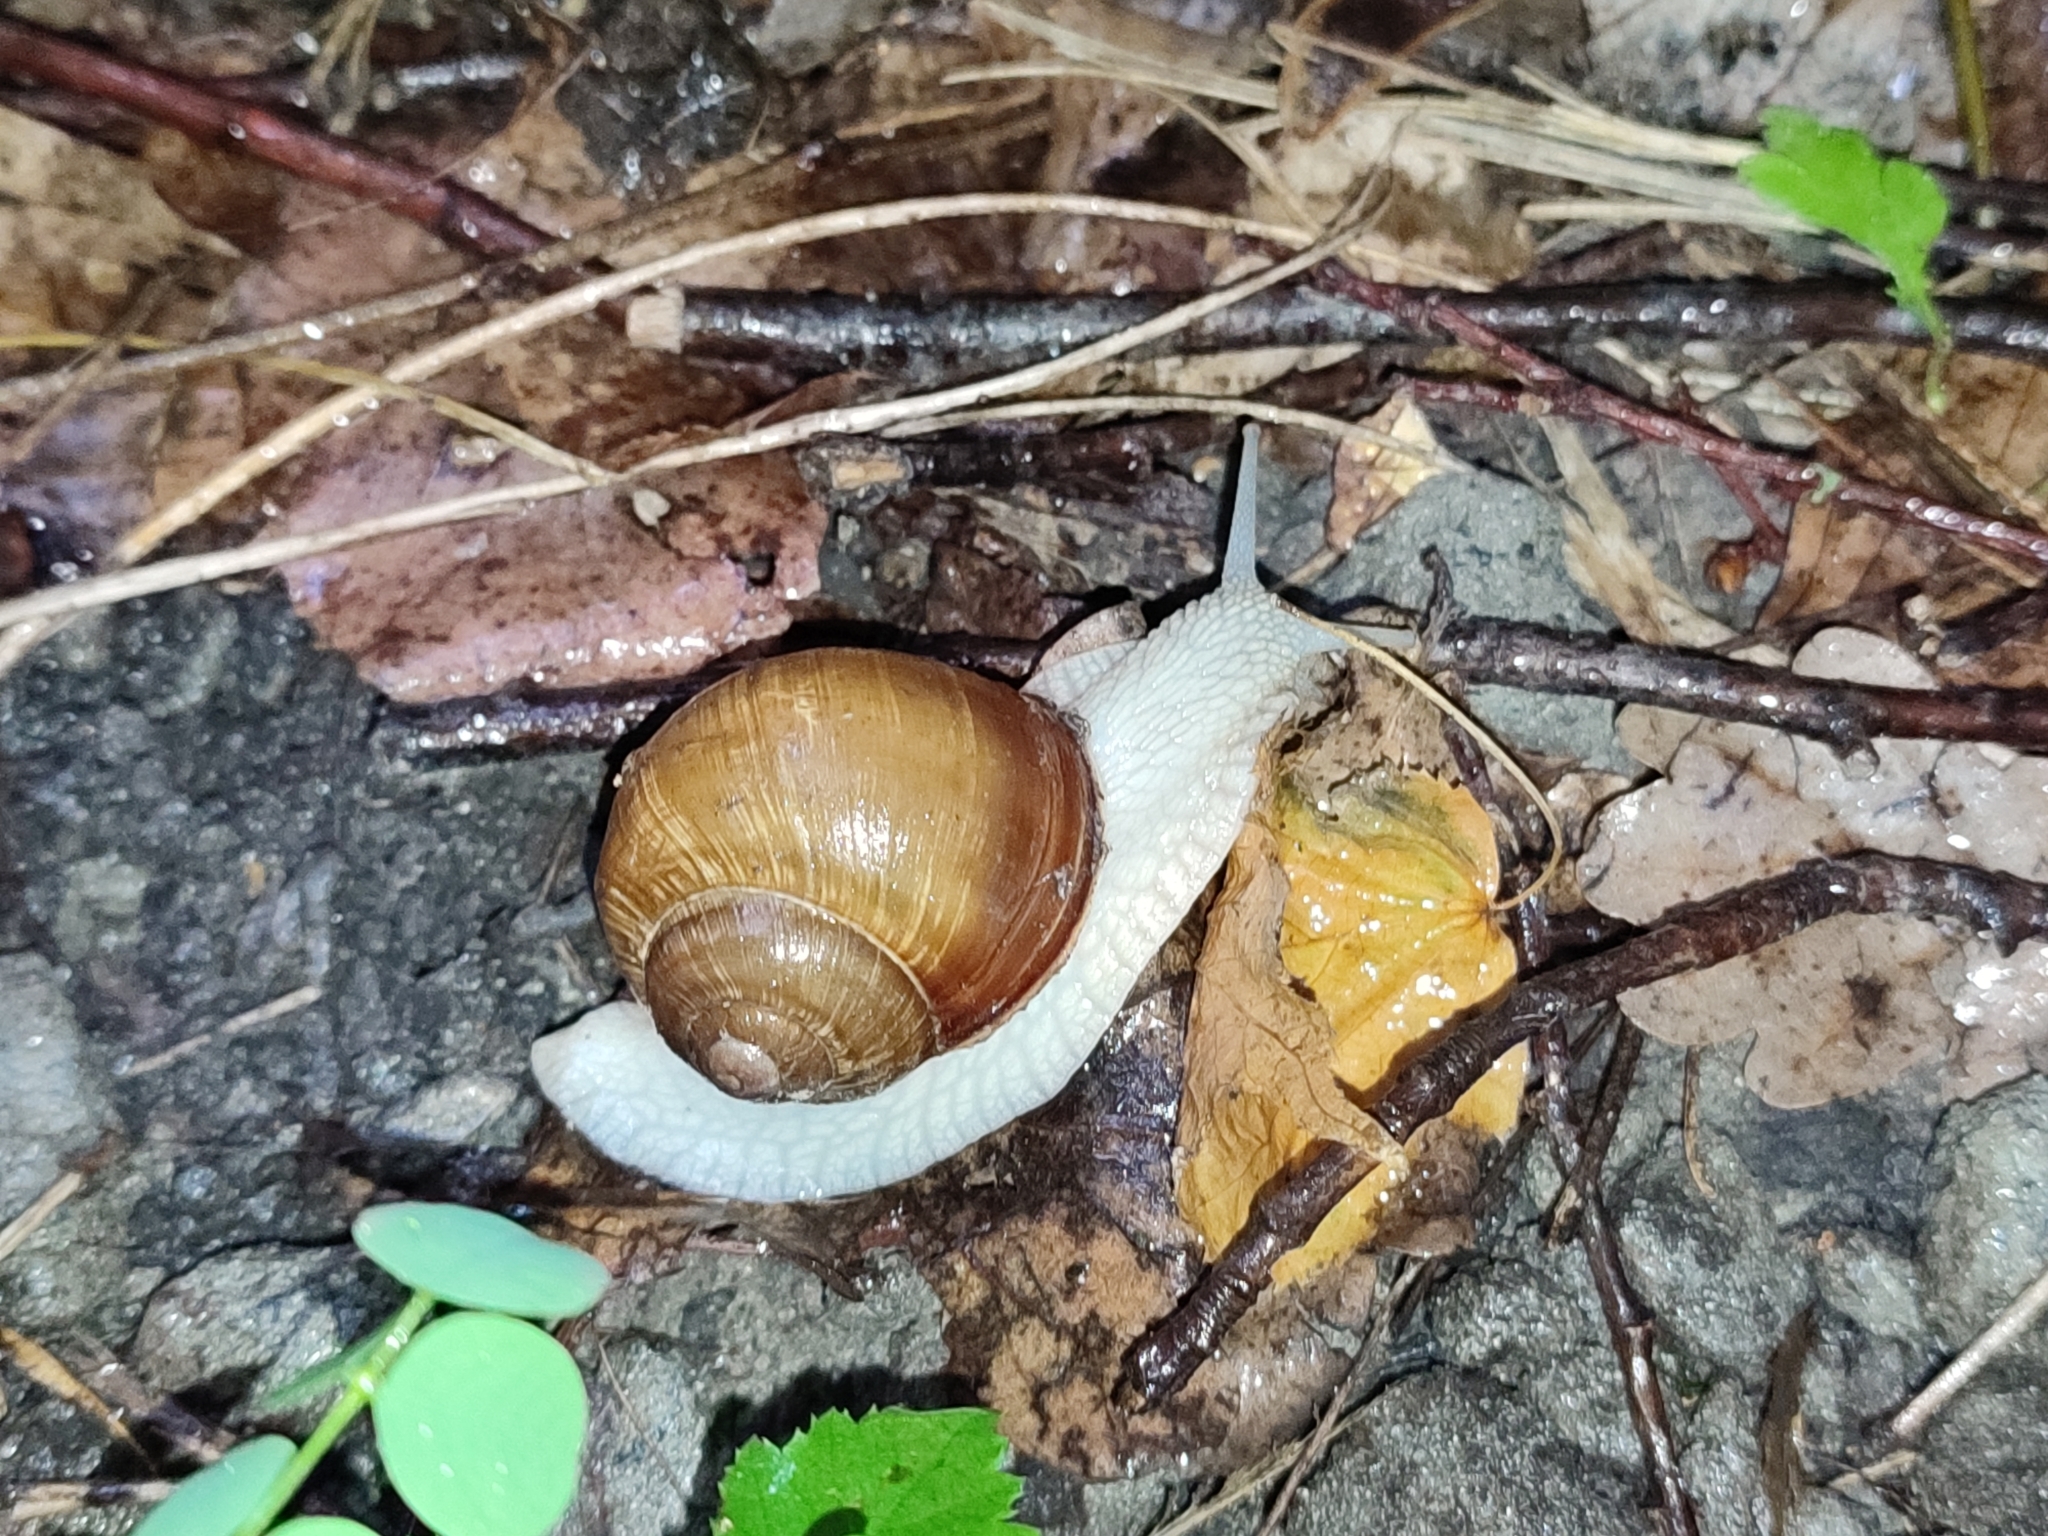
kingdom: Animalia
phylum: Mollusca
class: Gastropoda
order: Stylommatophora
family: Helicidae
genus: Helix
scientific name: Helix pomatia
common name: Roman snail
